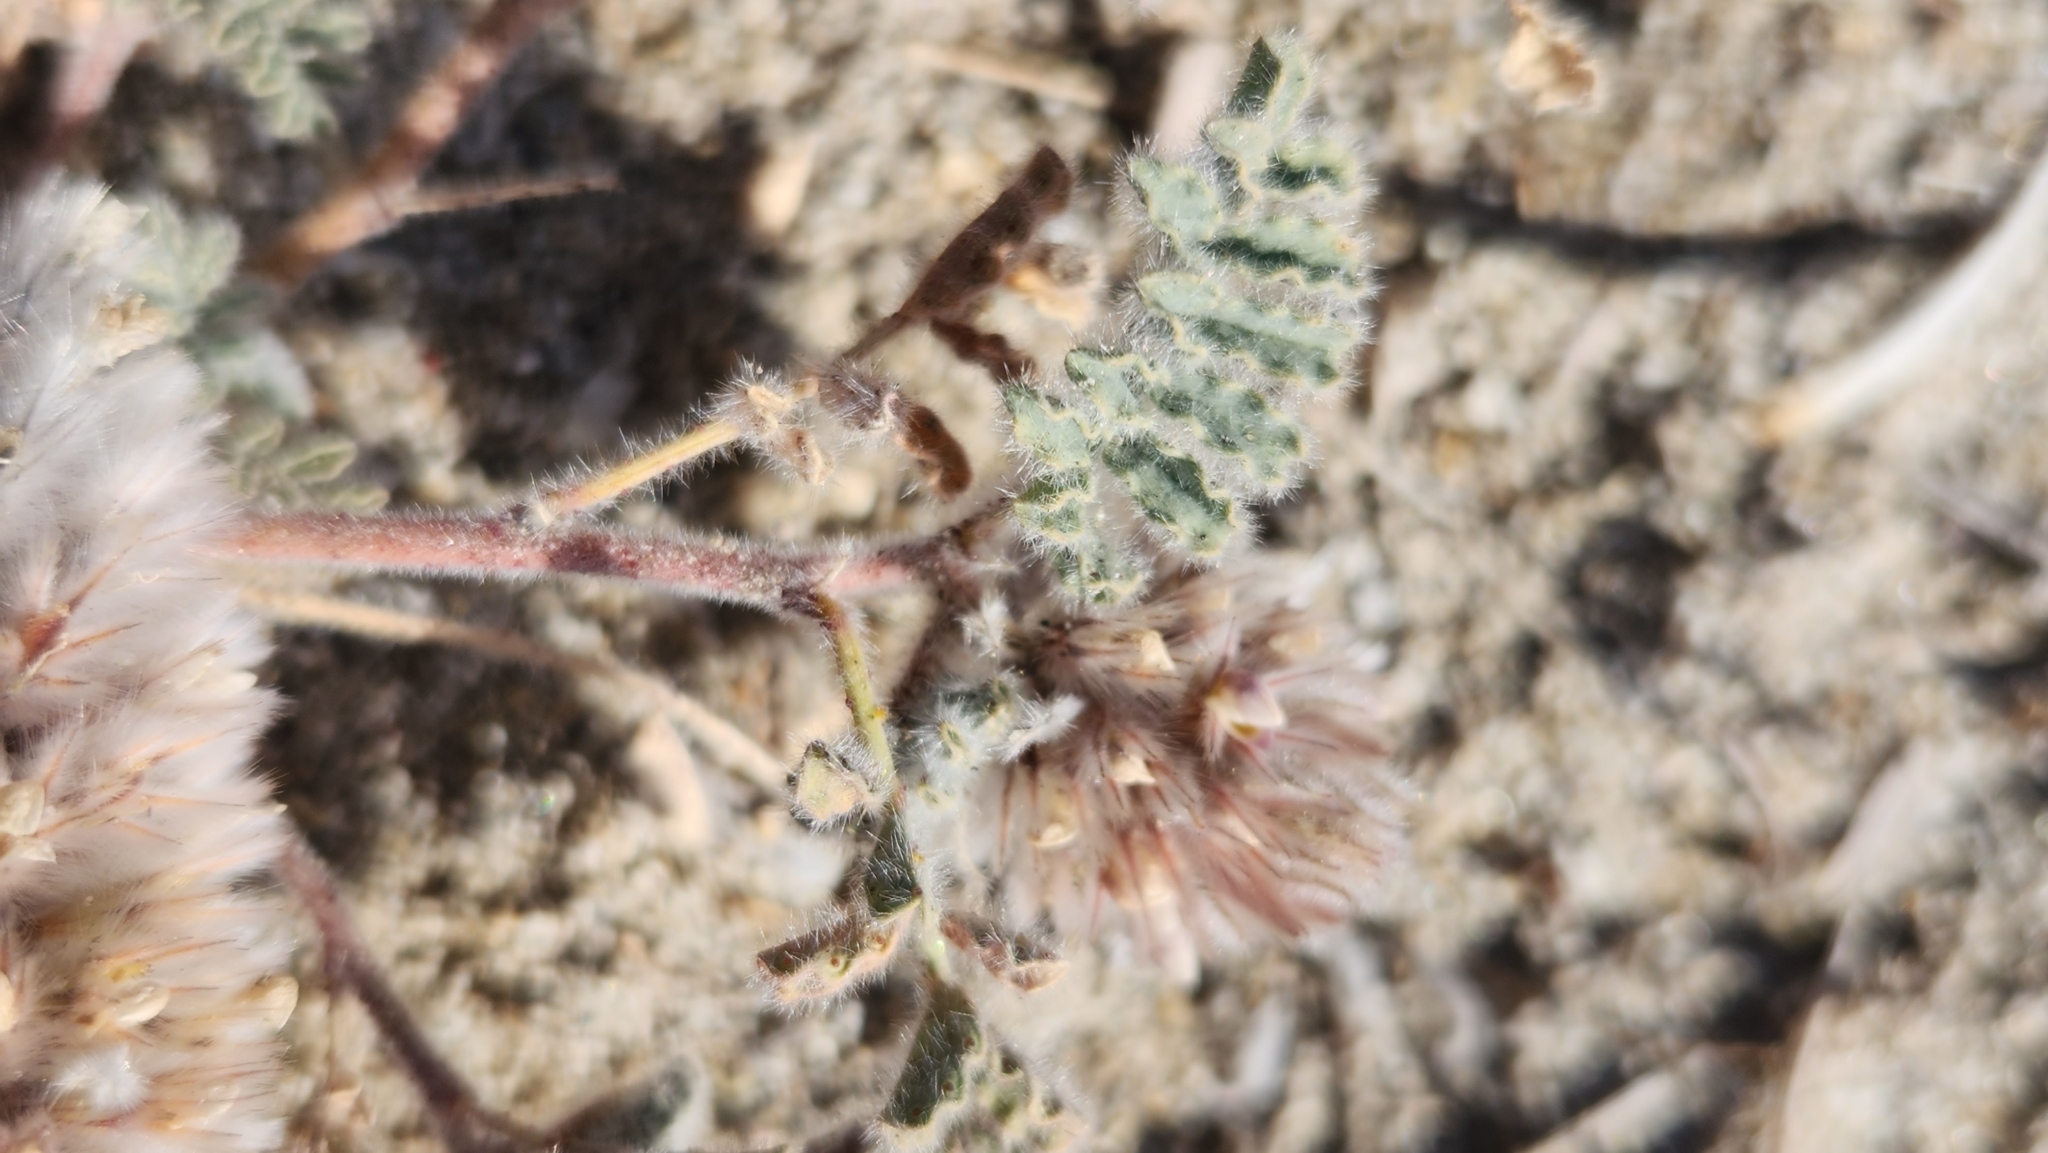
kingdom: Plantae
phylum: Tracheophyta
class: Magnoliopsida
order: Fabales
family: Fabaceae
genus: Dalea
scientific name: Dalea mollissima
